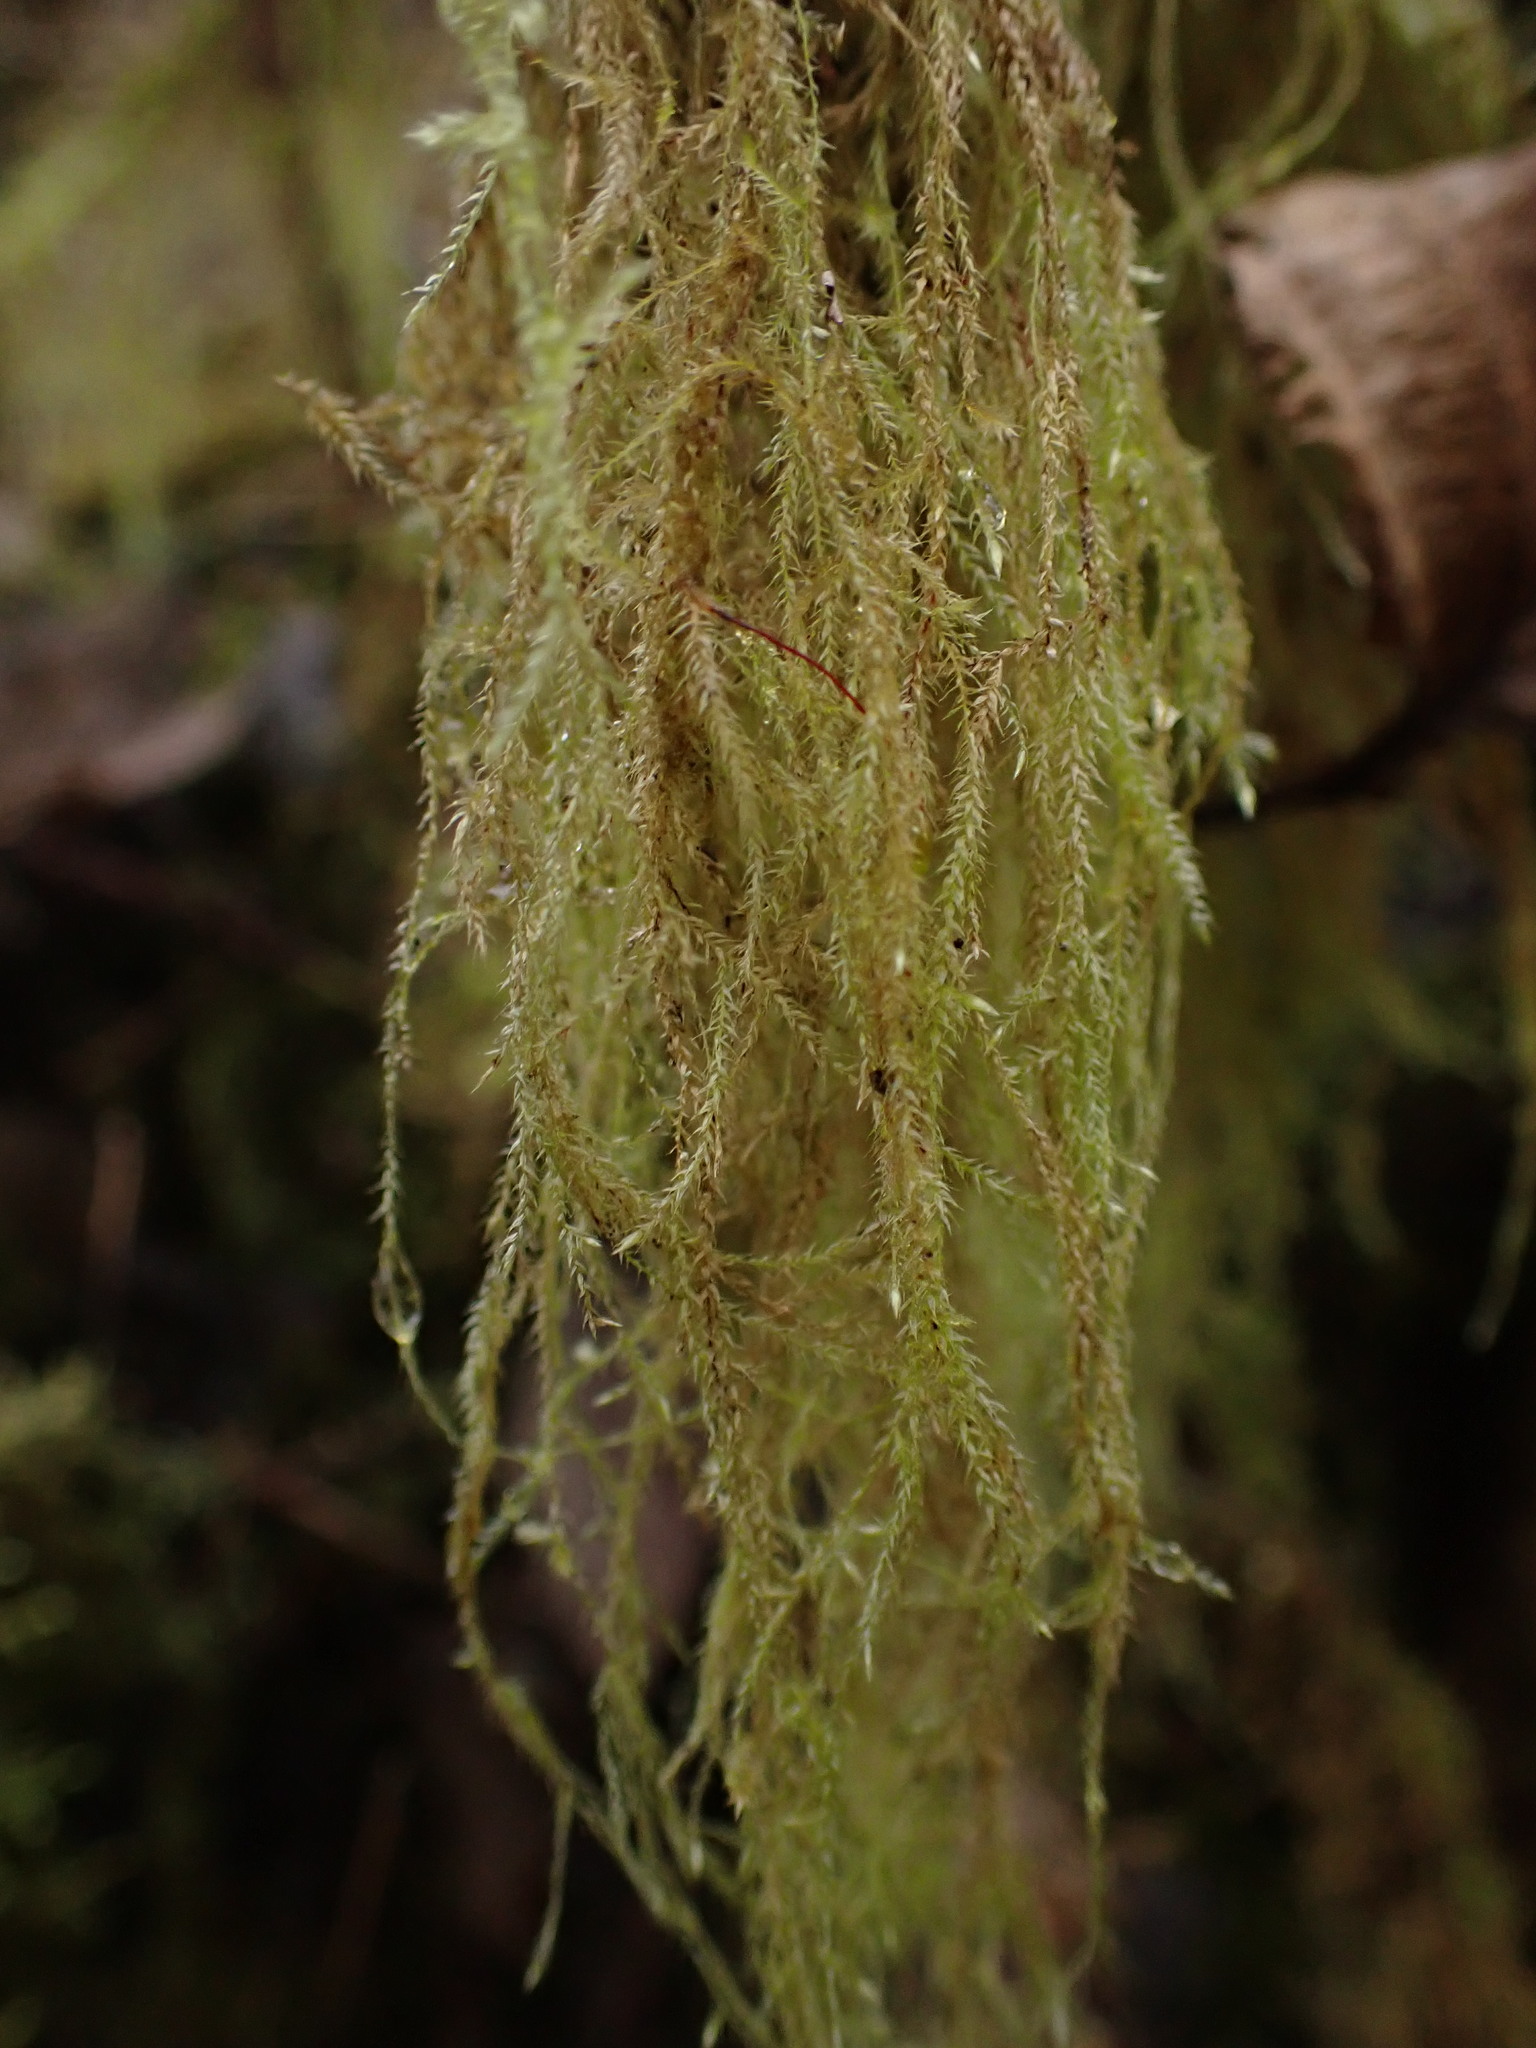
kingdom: Plantae
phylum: Bryophyta
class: Bryopsida
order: Hypnales
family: Lembophyllaceae
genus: Pseudisothecium
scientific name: Pseudisothecium stoloniferum
